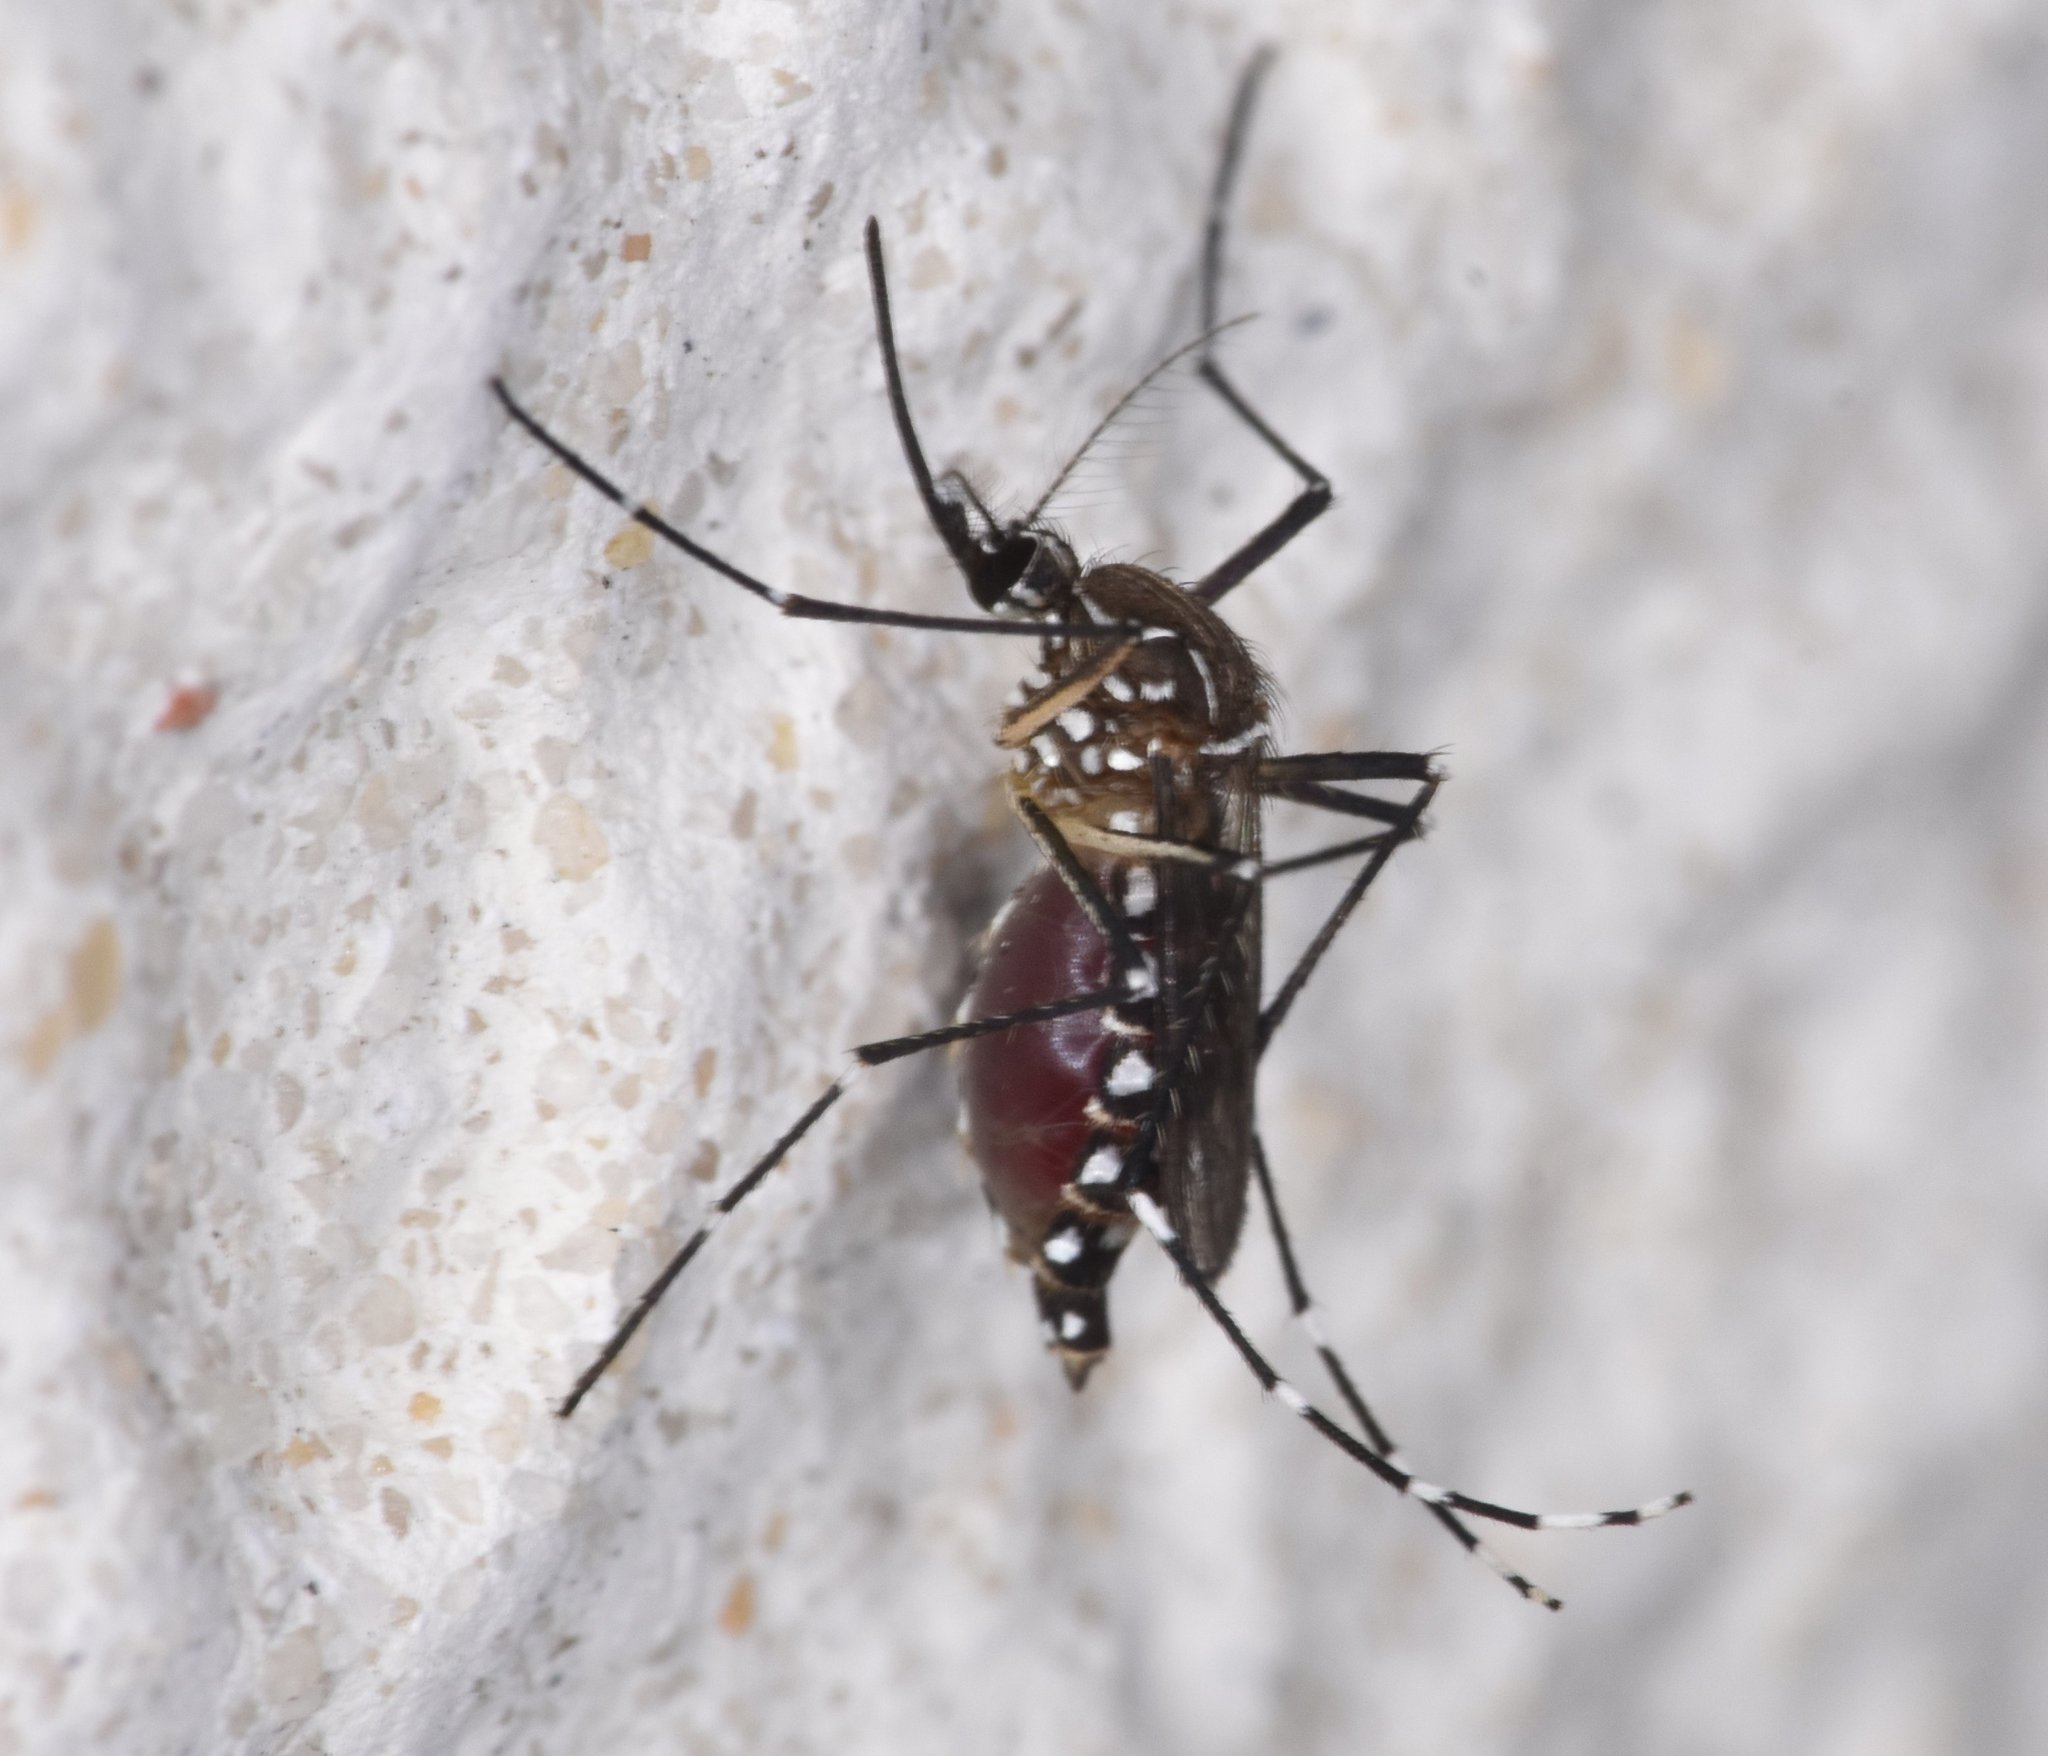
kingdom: Animalia
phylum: Arthropoda
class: Insecta
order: Diptera
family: Culicidae
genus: Aedes
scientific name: Aedes aegypti
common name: Yellow fever mosquito
